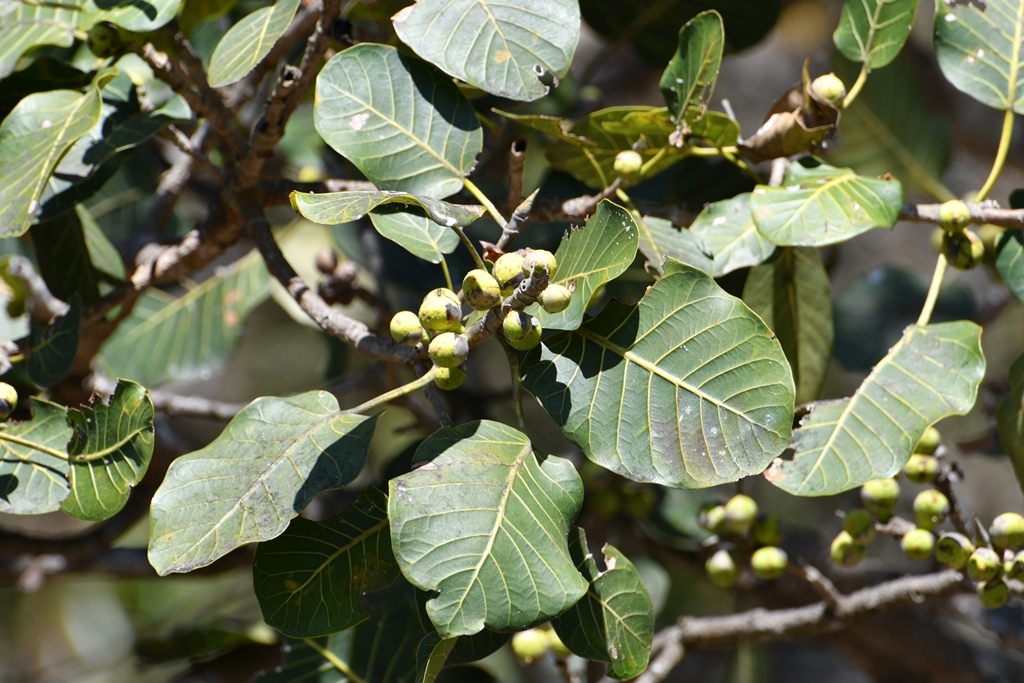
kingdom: Plantae
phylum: Tracheophyta
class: Magnoliopsida
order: Rosales
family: Moraceae
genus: Ficus
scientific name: Ficus aurea
